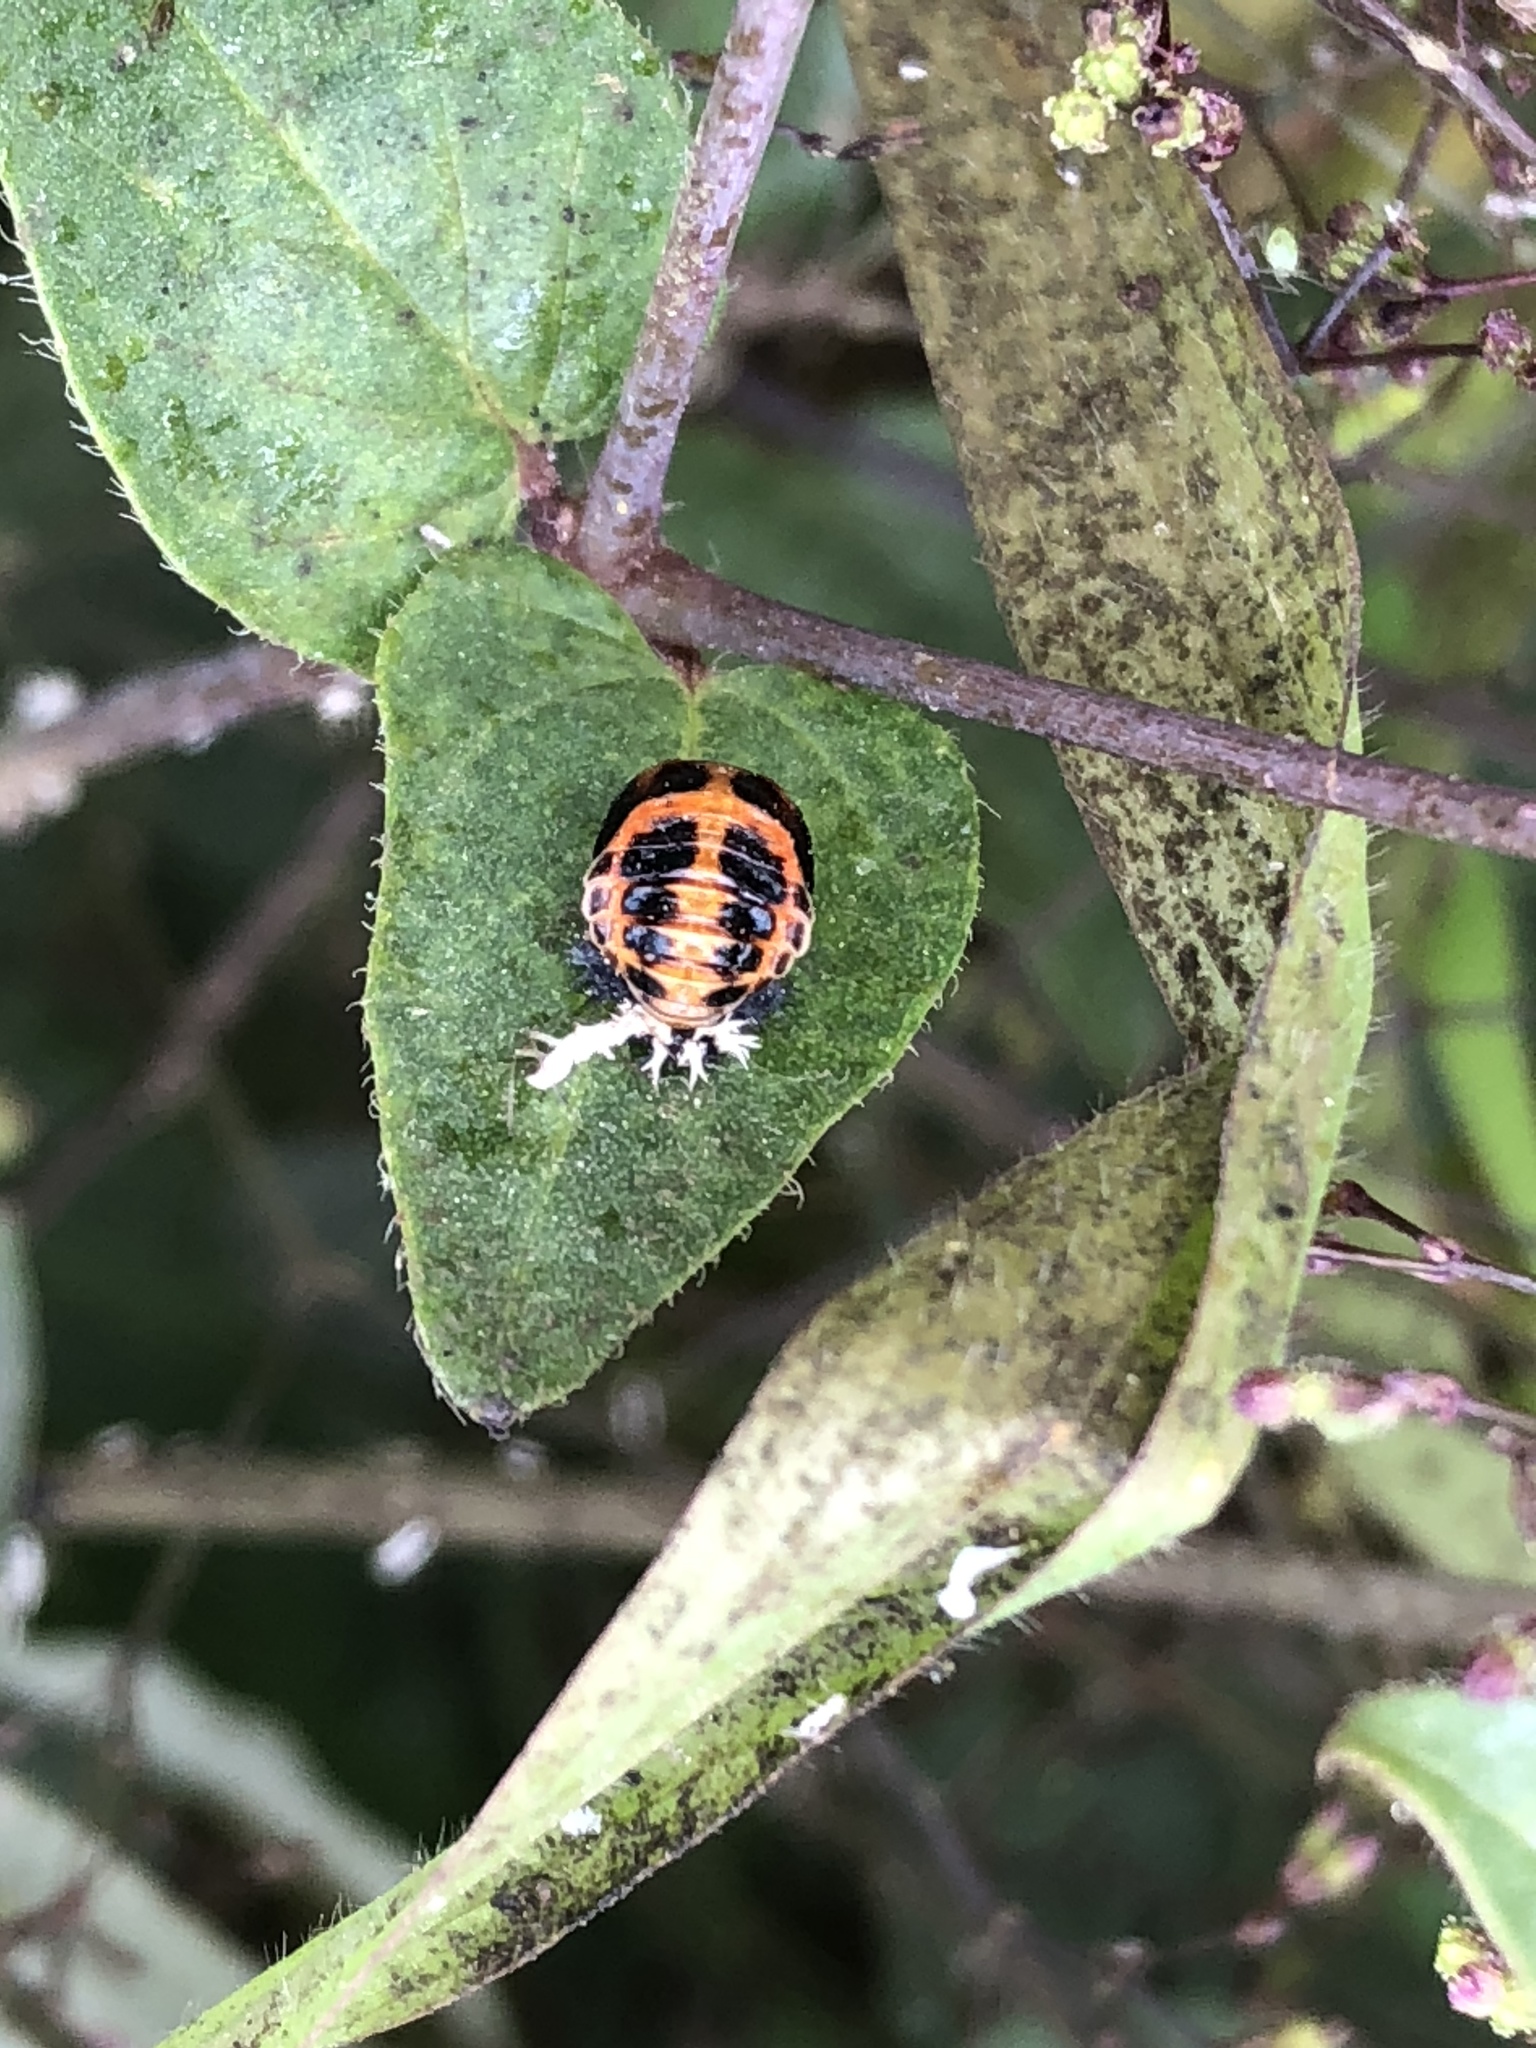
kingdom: Animalia
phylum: Arthropoda
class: Insecta
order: Coleoptera
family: Coccinellidae
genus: Harmonia
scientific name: Harmonia axyridis
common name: Harlequin ladybird
